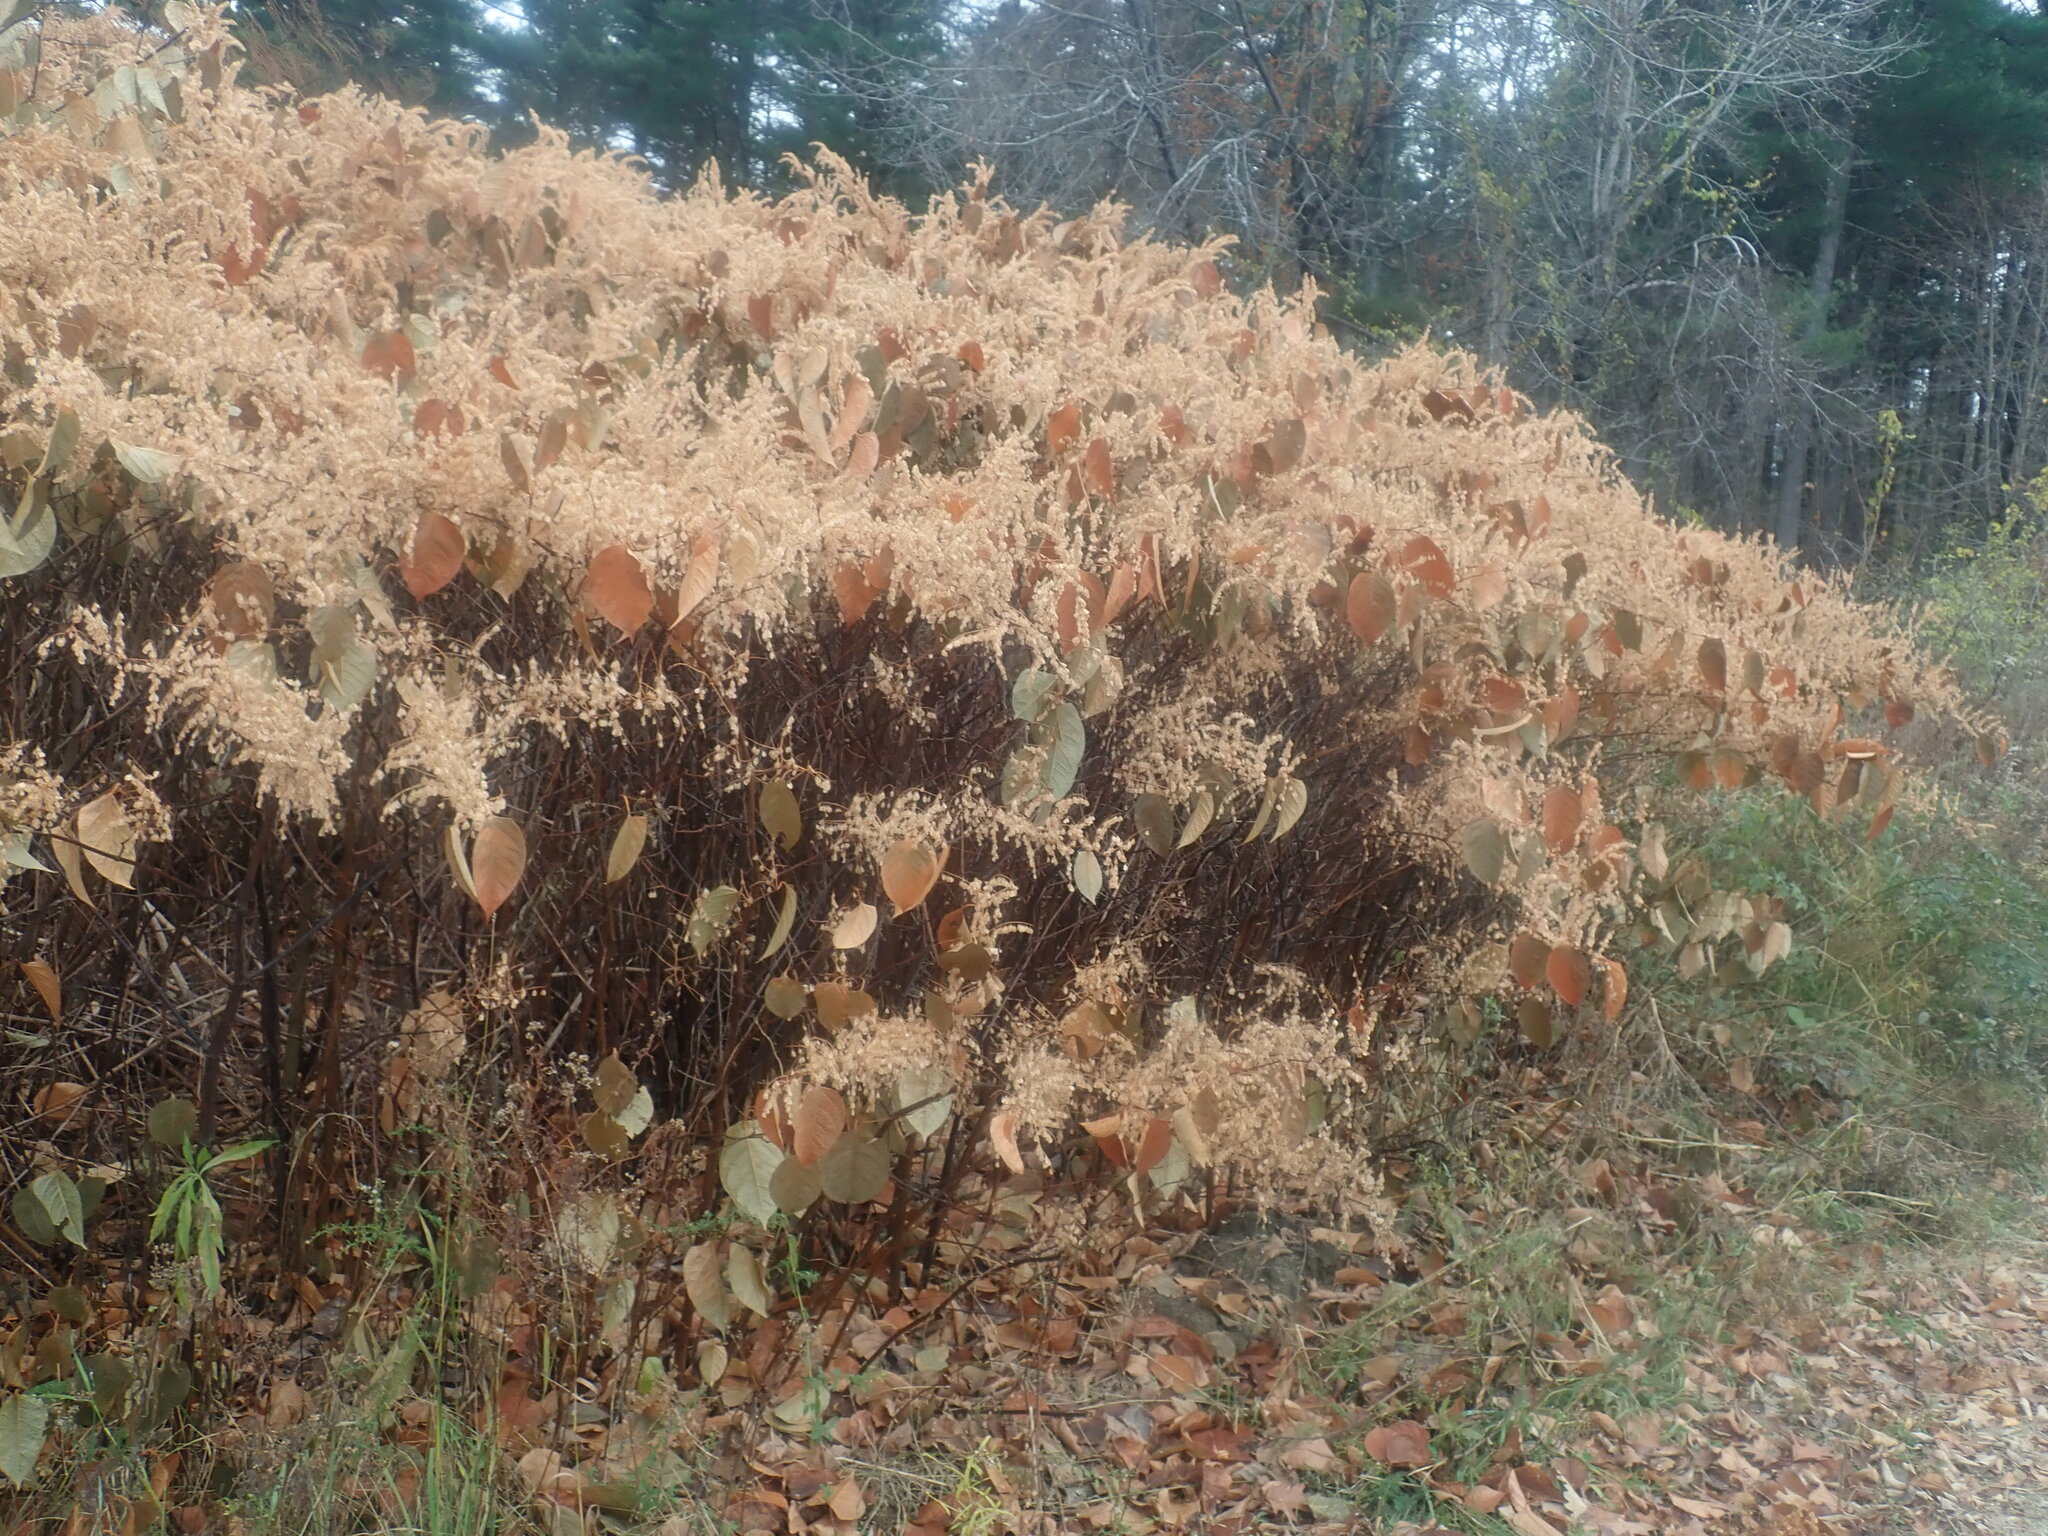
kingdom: Plantae
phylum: Tracheophyta
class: Magnoliopsida
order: Caryophyllales
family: Polygonaceae
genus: Reynoutria
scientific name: Reynoutria japonica
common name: Japanese knotweed
